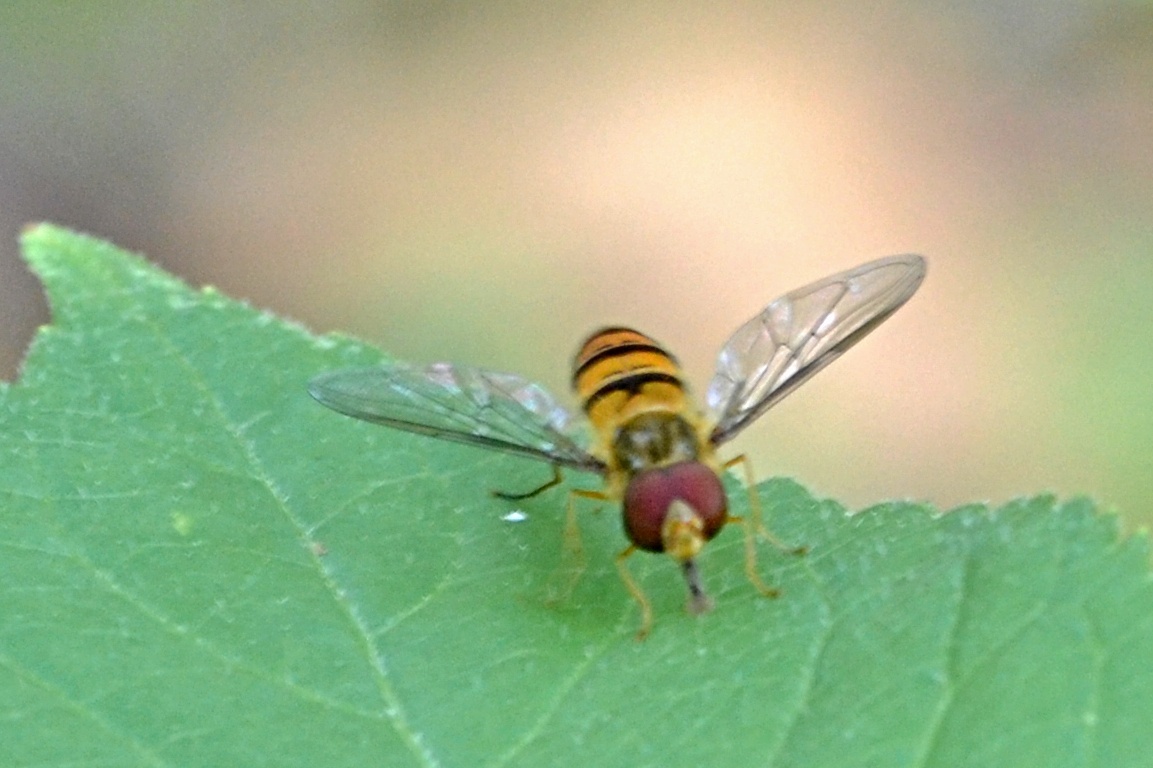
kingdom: Animalia
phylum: Arthropoda
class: Insecta
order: Diptera
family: Syrphidae
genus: Episyrphus
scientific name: Episyrphus balteatus
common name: Marmalade hoverfly
